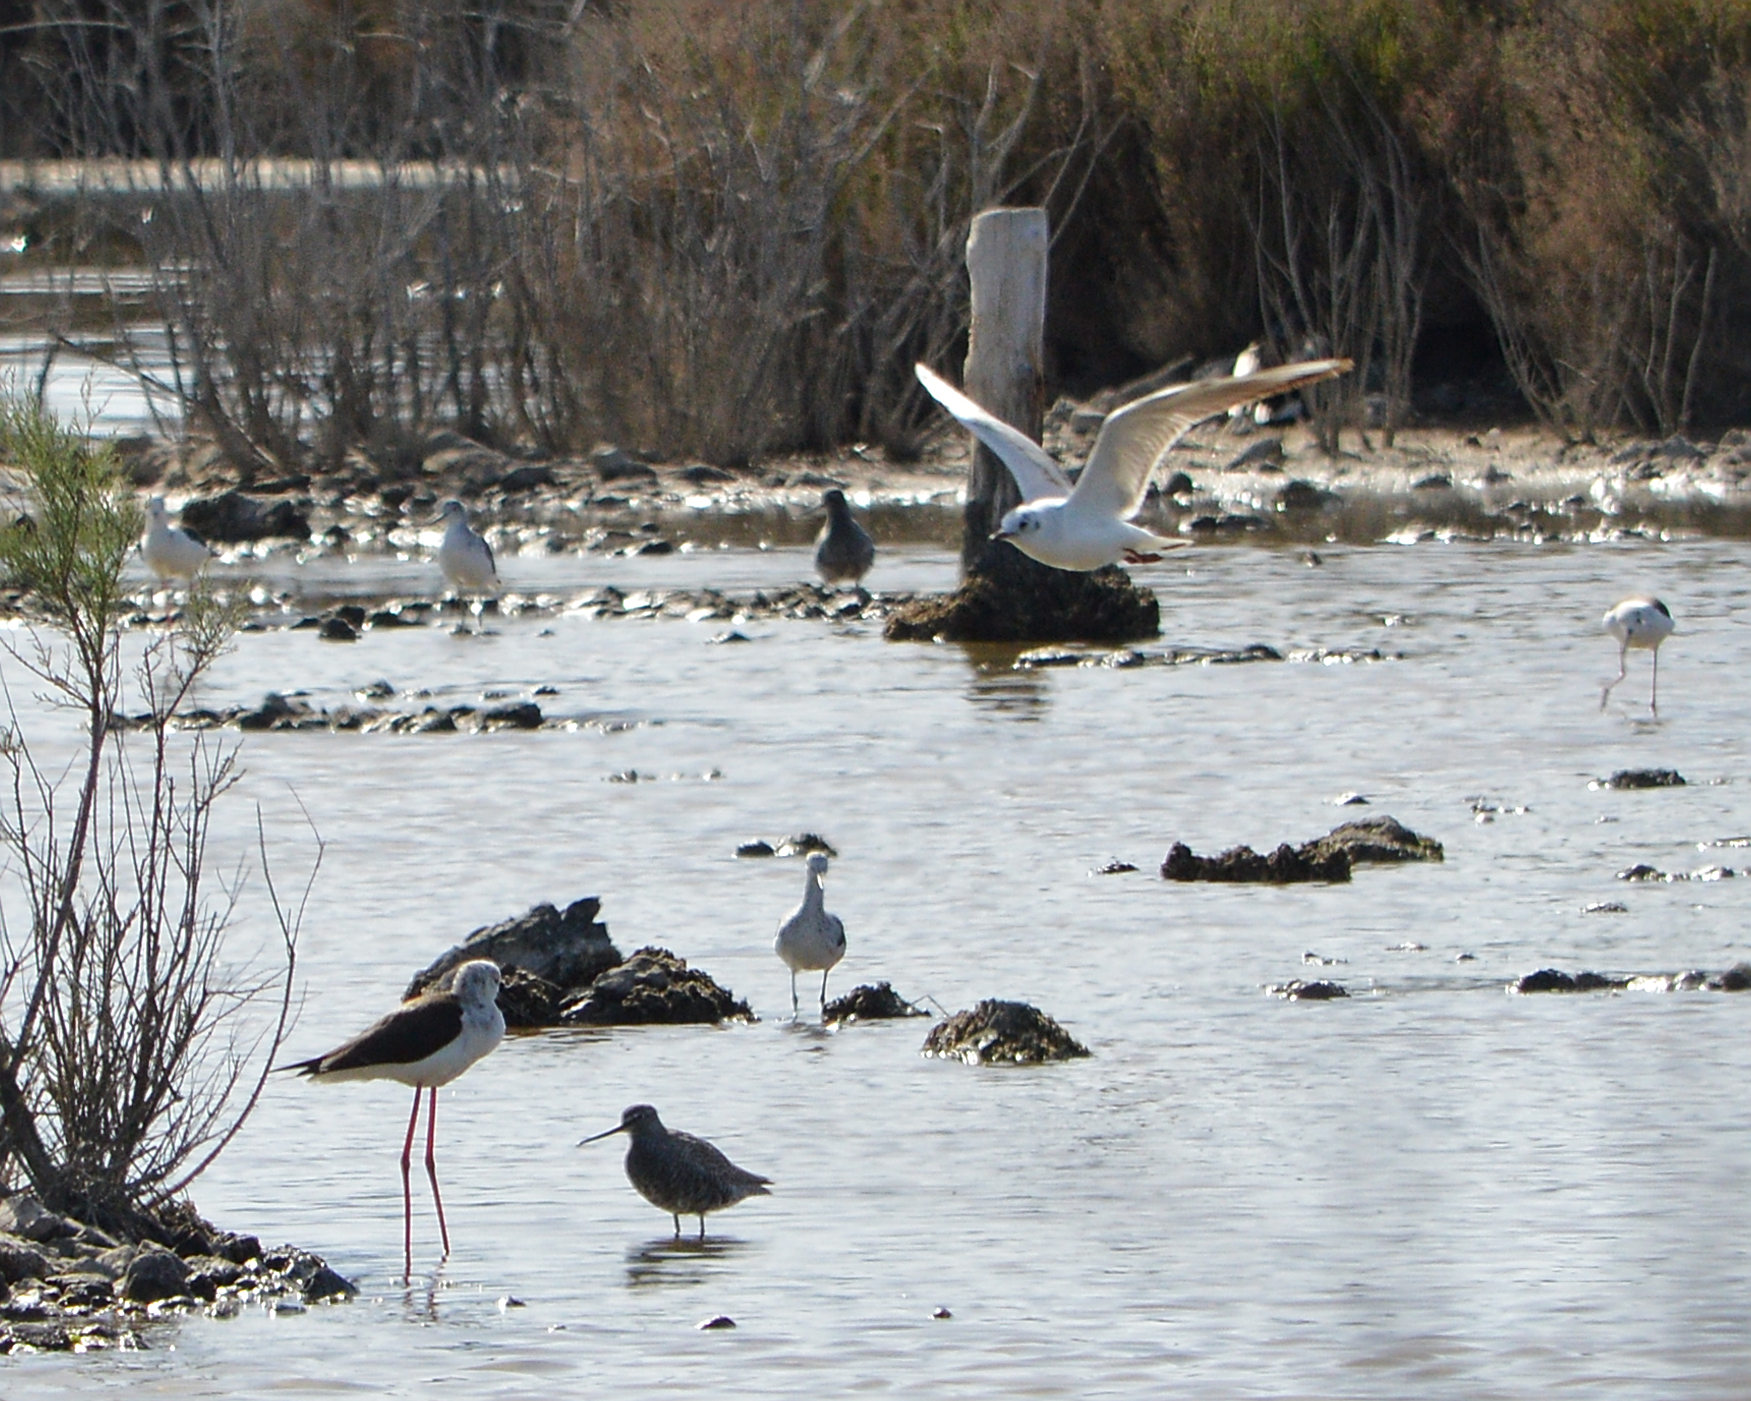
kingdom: Animalia
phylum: Chordata
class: Aves
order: Charadriiformes
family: Laridae
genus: Chroicocephalus
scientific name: Chroicocephalus ridibundus
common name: Black-headed gull
